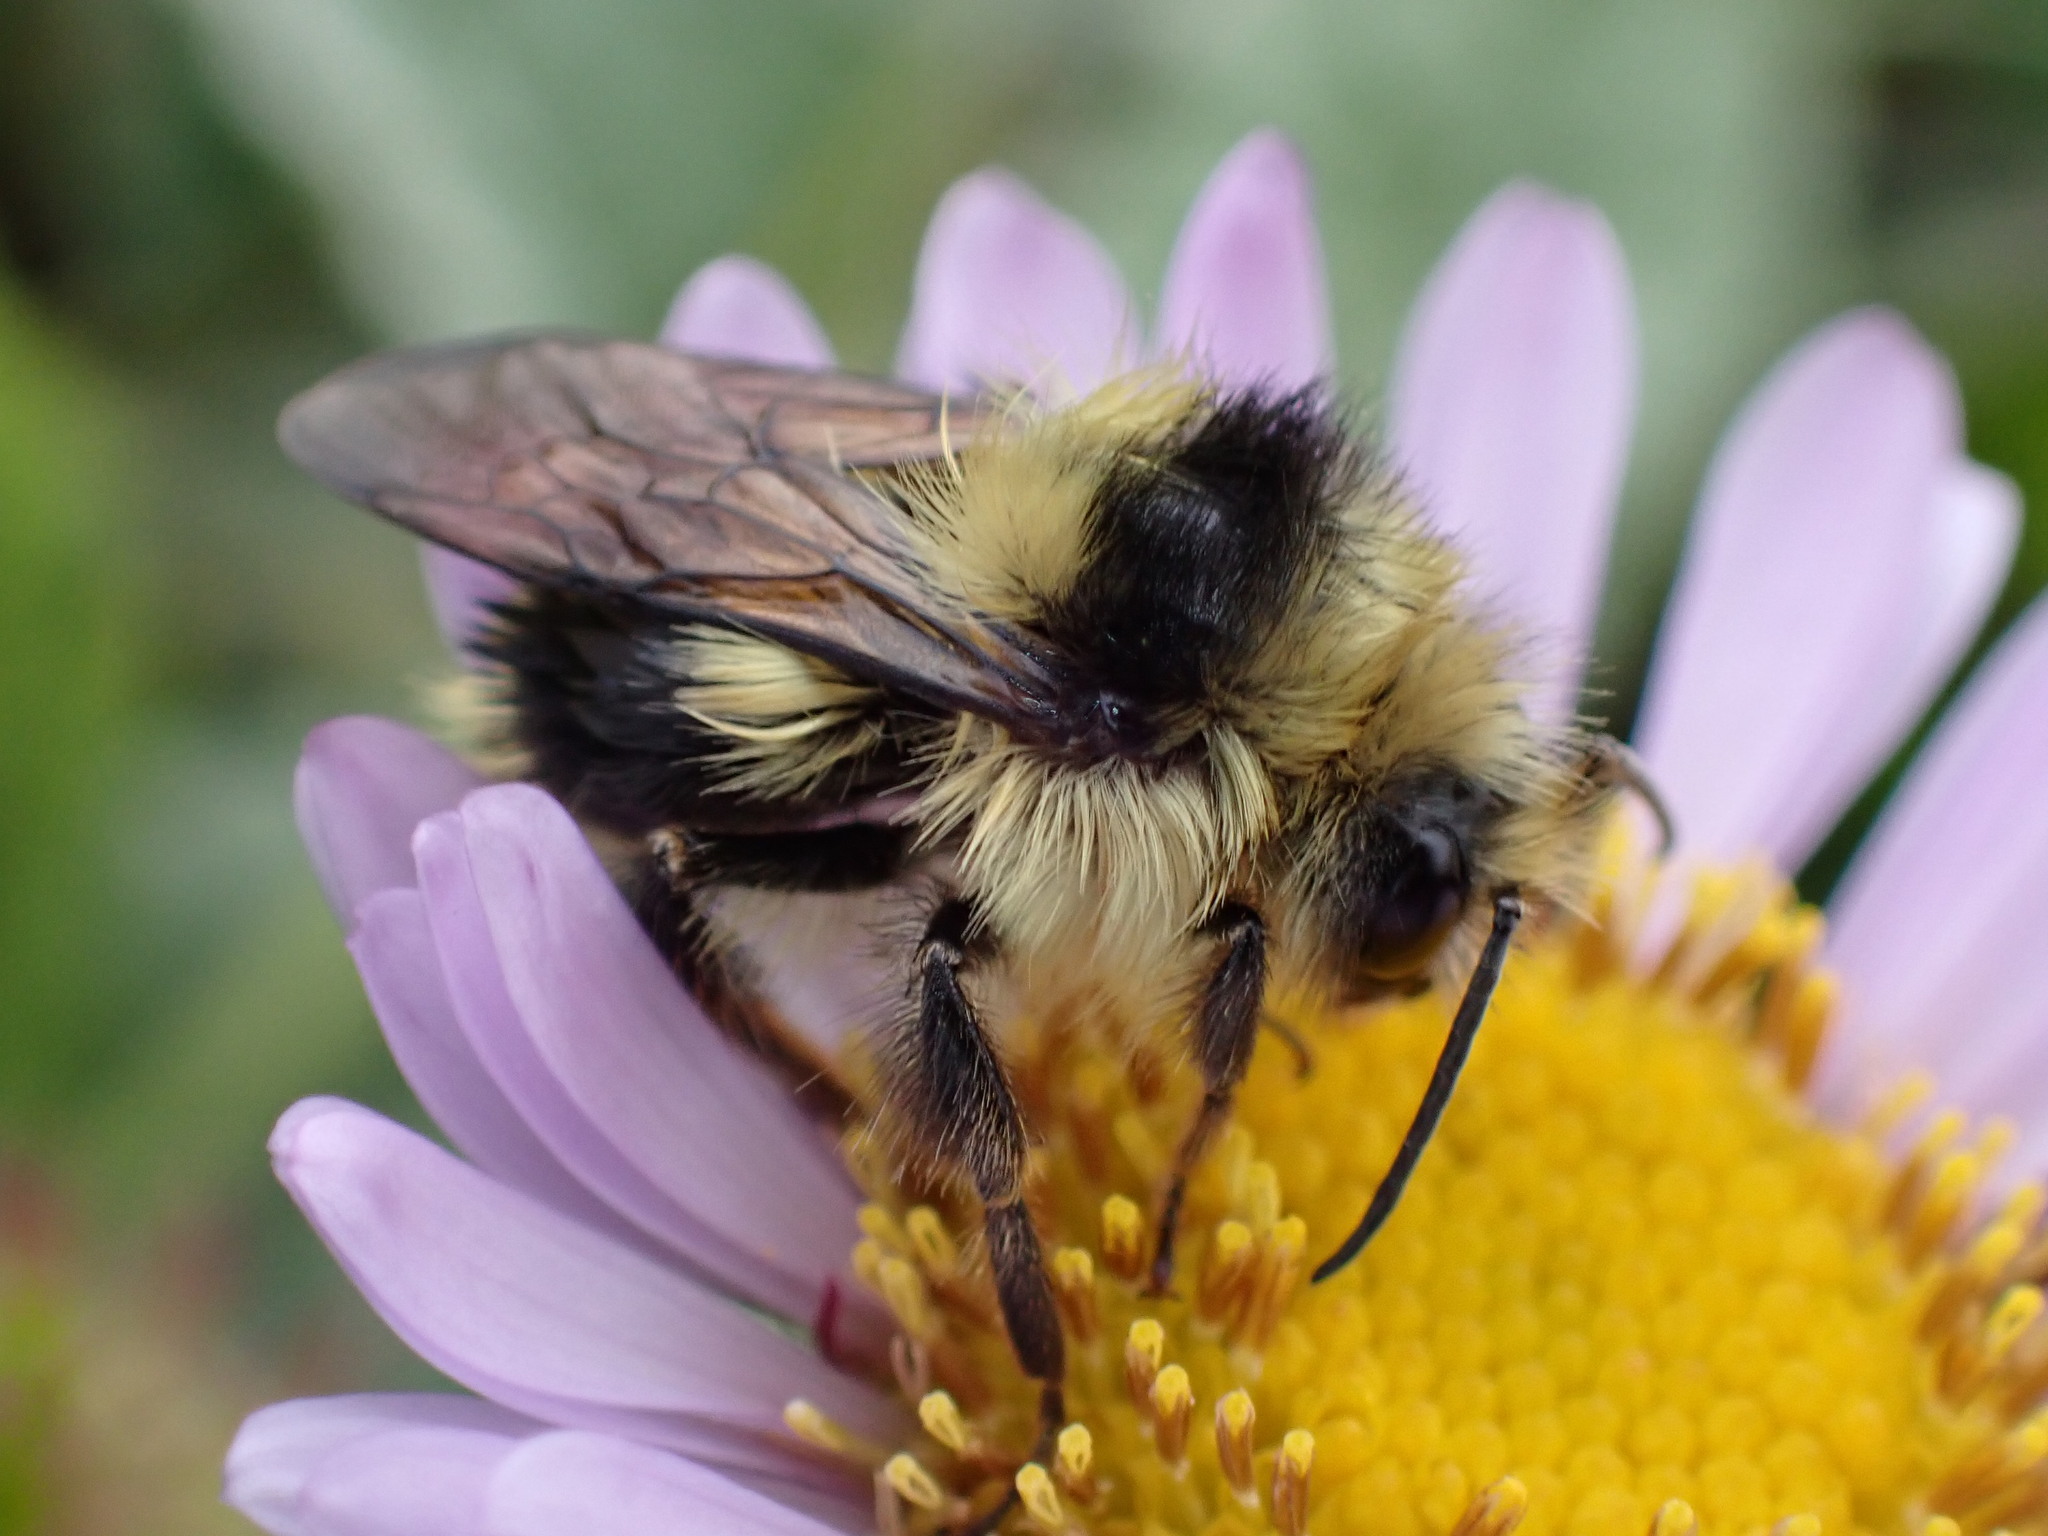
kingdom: Animalia
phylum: Arthropoda
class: Insecta
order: Hymenoptera
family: Apidae
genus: Bombus
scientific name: Bombus melanopygus
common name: Black tail bumble bee
